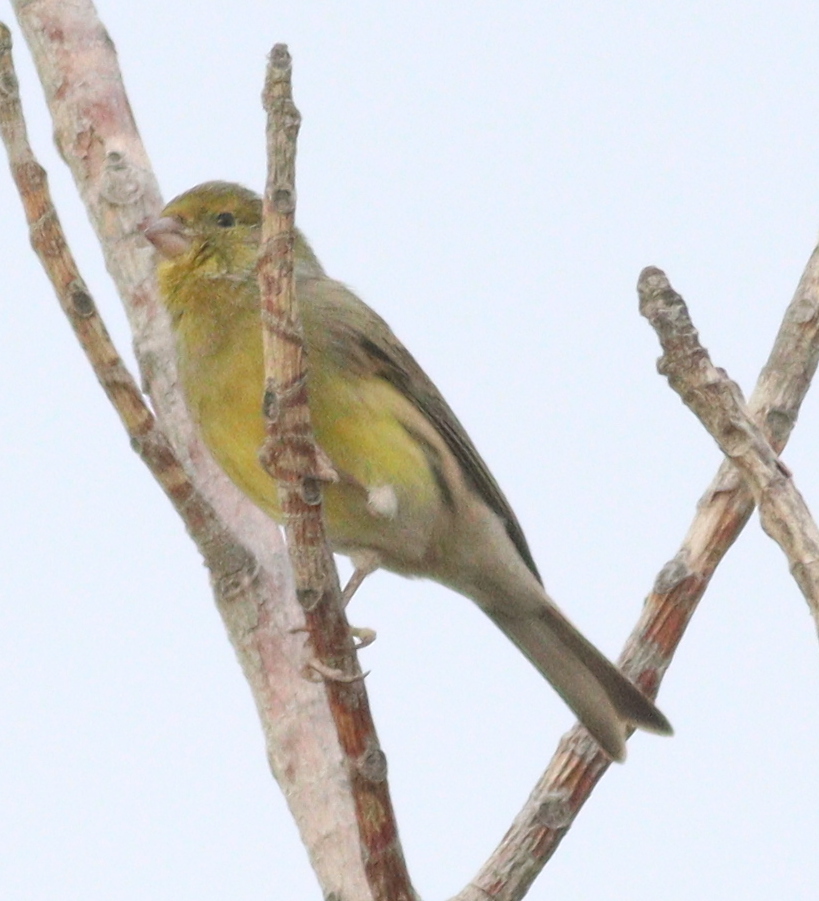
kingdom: Animalia
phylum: Chordata
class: Aves
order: Passeriformes
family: Fringillidae
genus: Serinus
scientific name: Serinus canaria
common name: Atlantic canary
